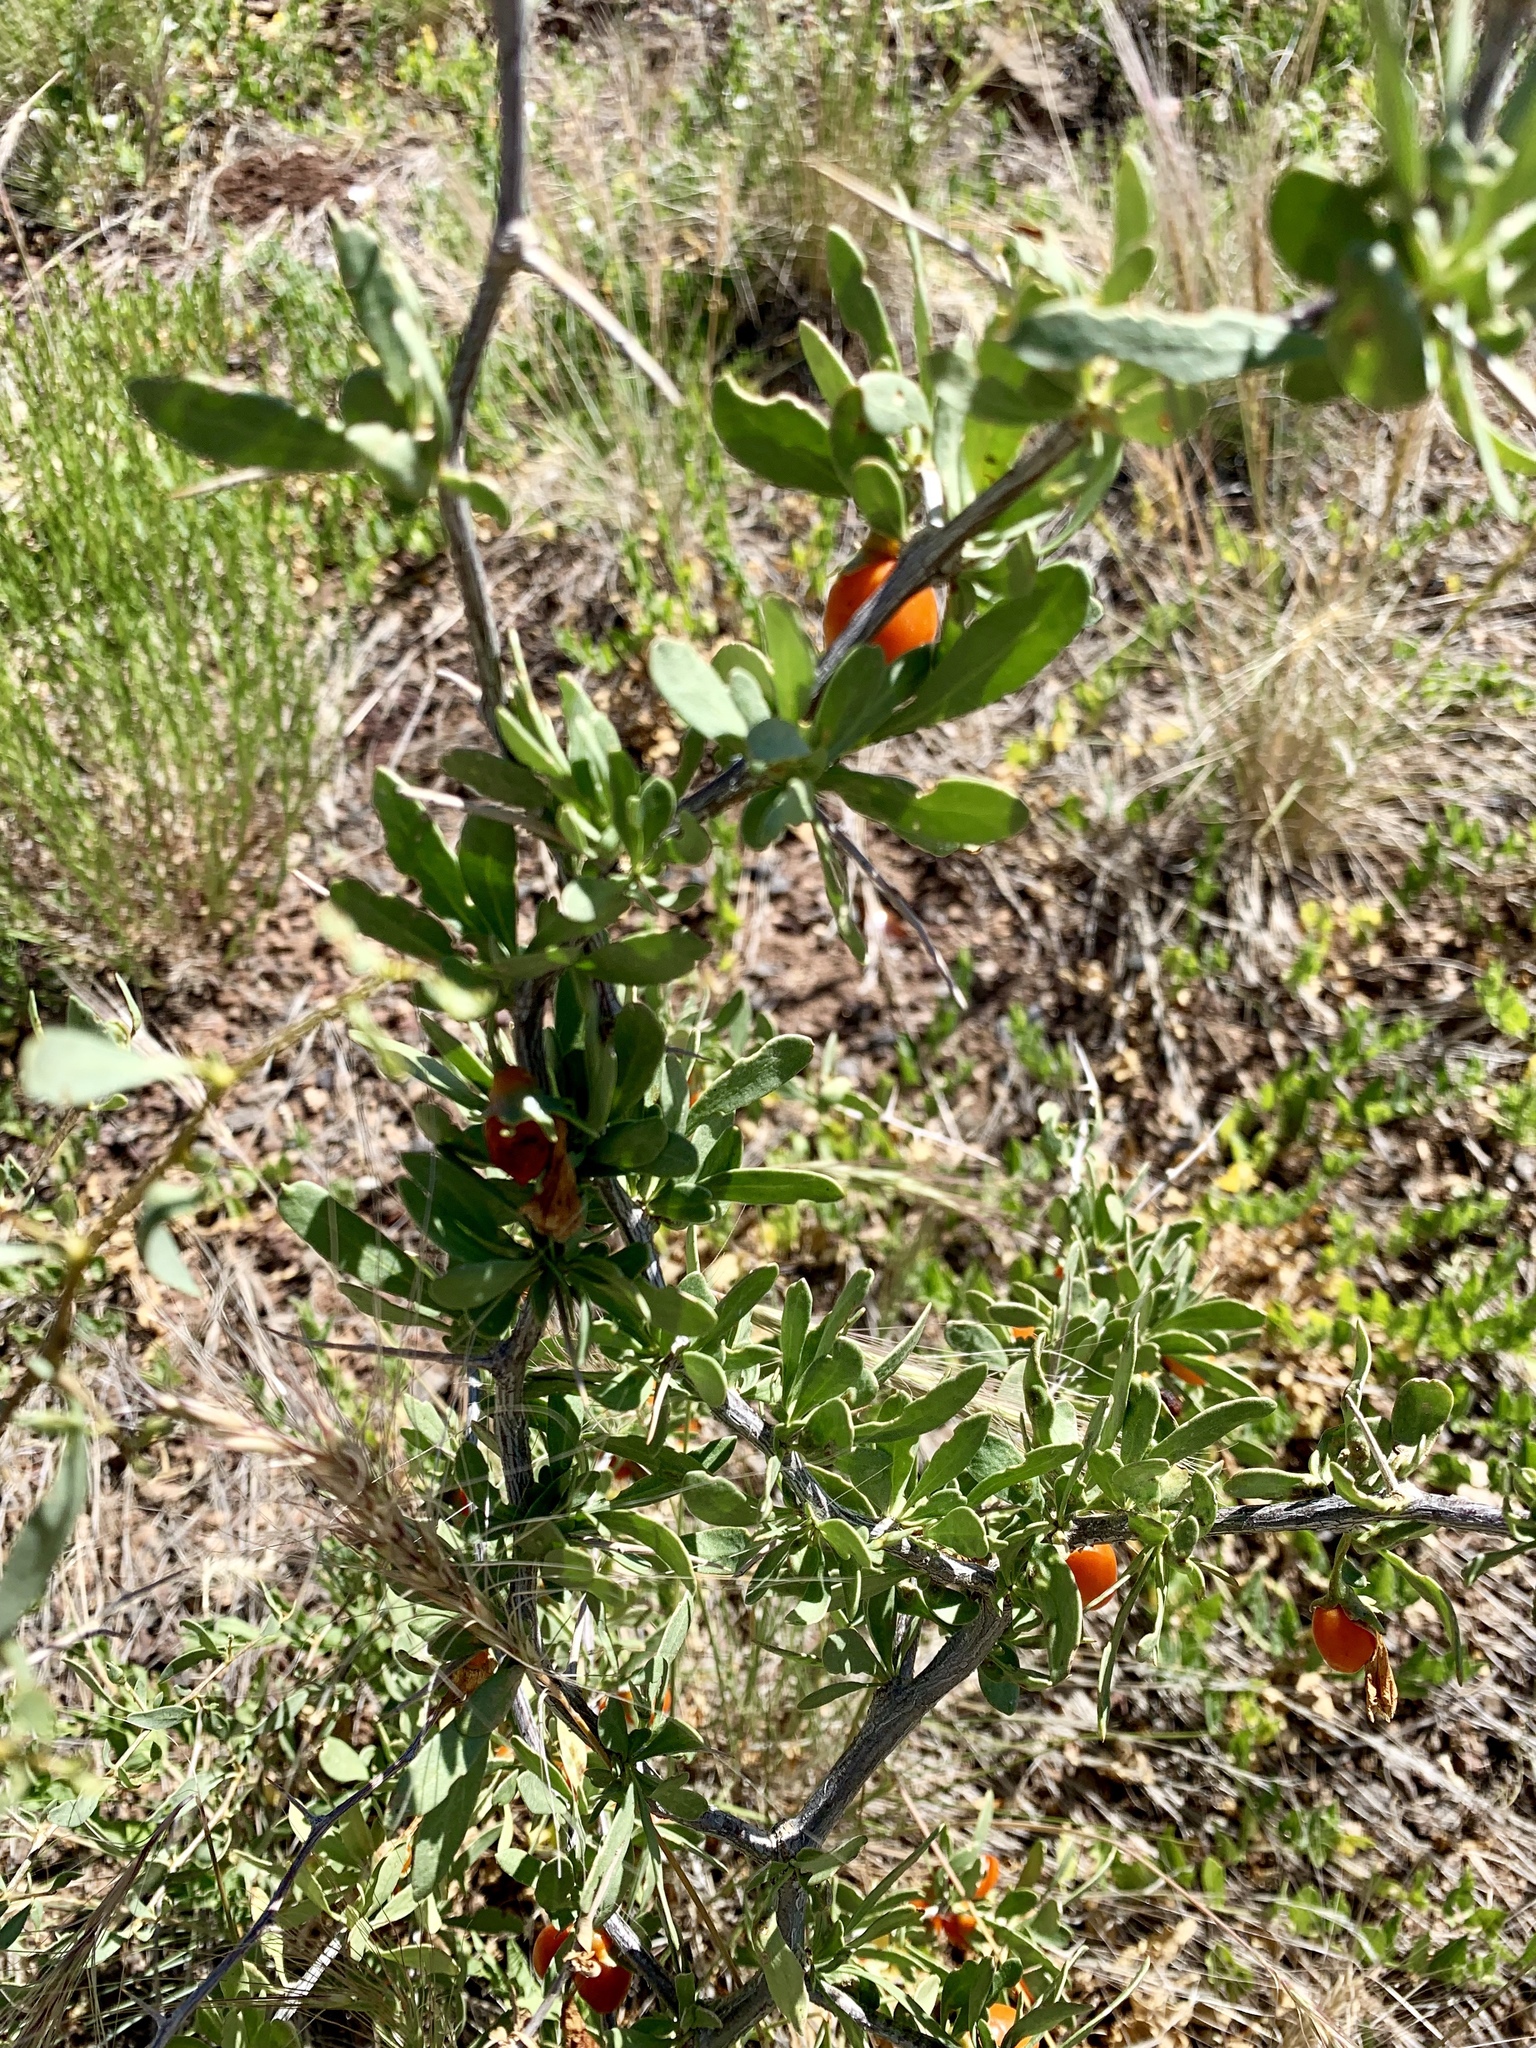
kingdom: Plantae
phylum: Tracheophyta
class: Magnoliopsida
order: Solanales
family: Solanaceae
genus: Lycium
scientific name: Lycium pallidum
